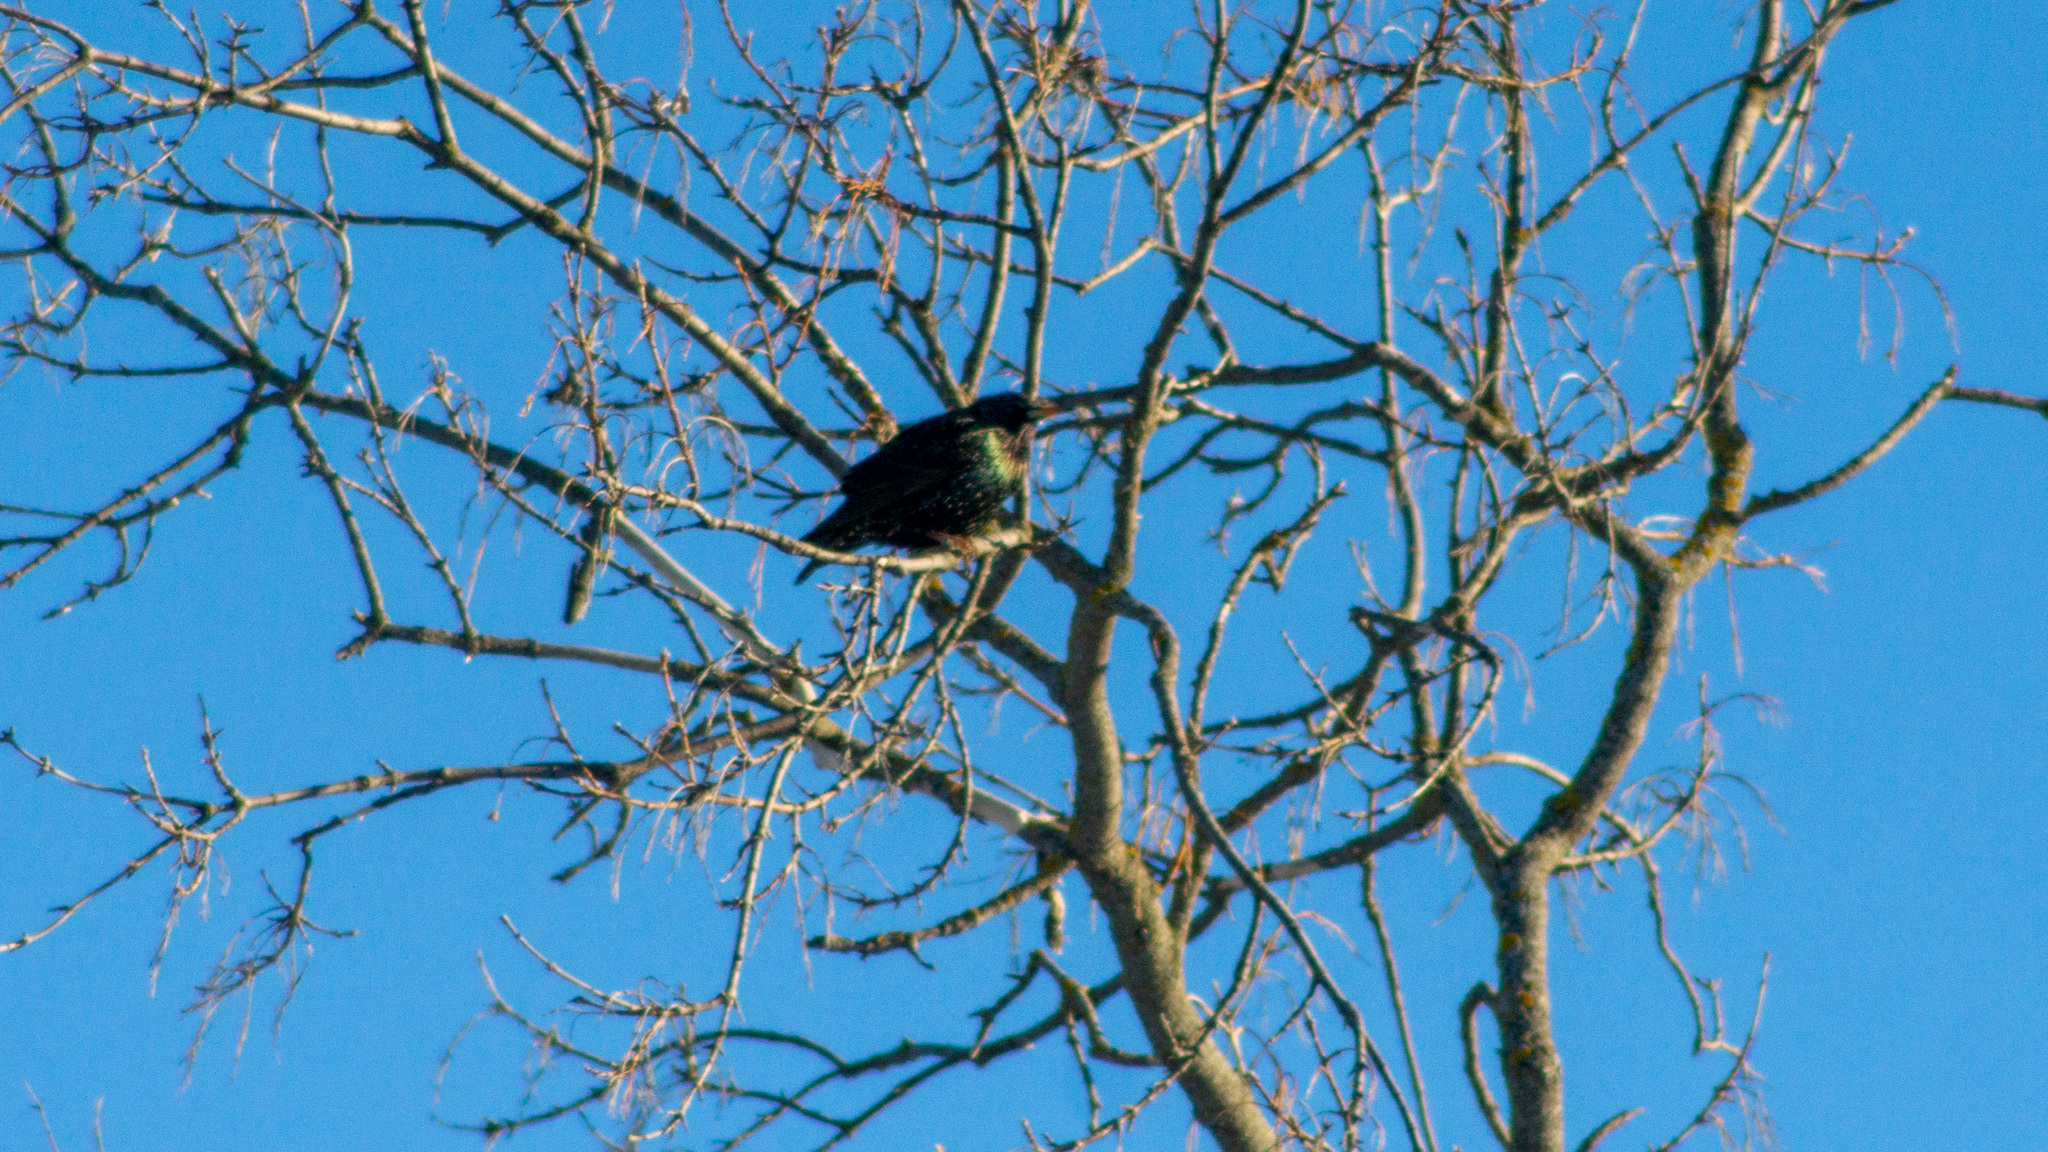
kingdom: Animalia
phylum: Chordata
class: Aves
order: Passeriformes
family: Sturnidae
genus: Sturnus
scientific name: Sturnus vulgaris
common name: Common starling
